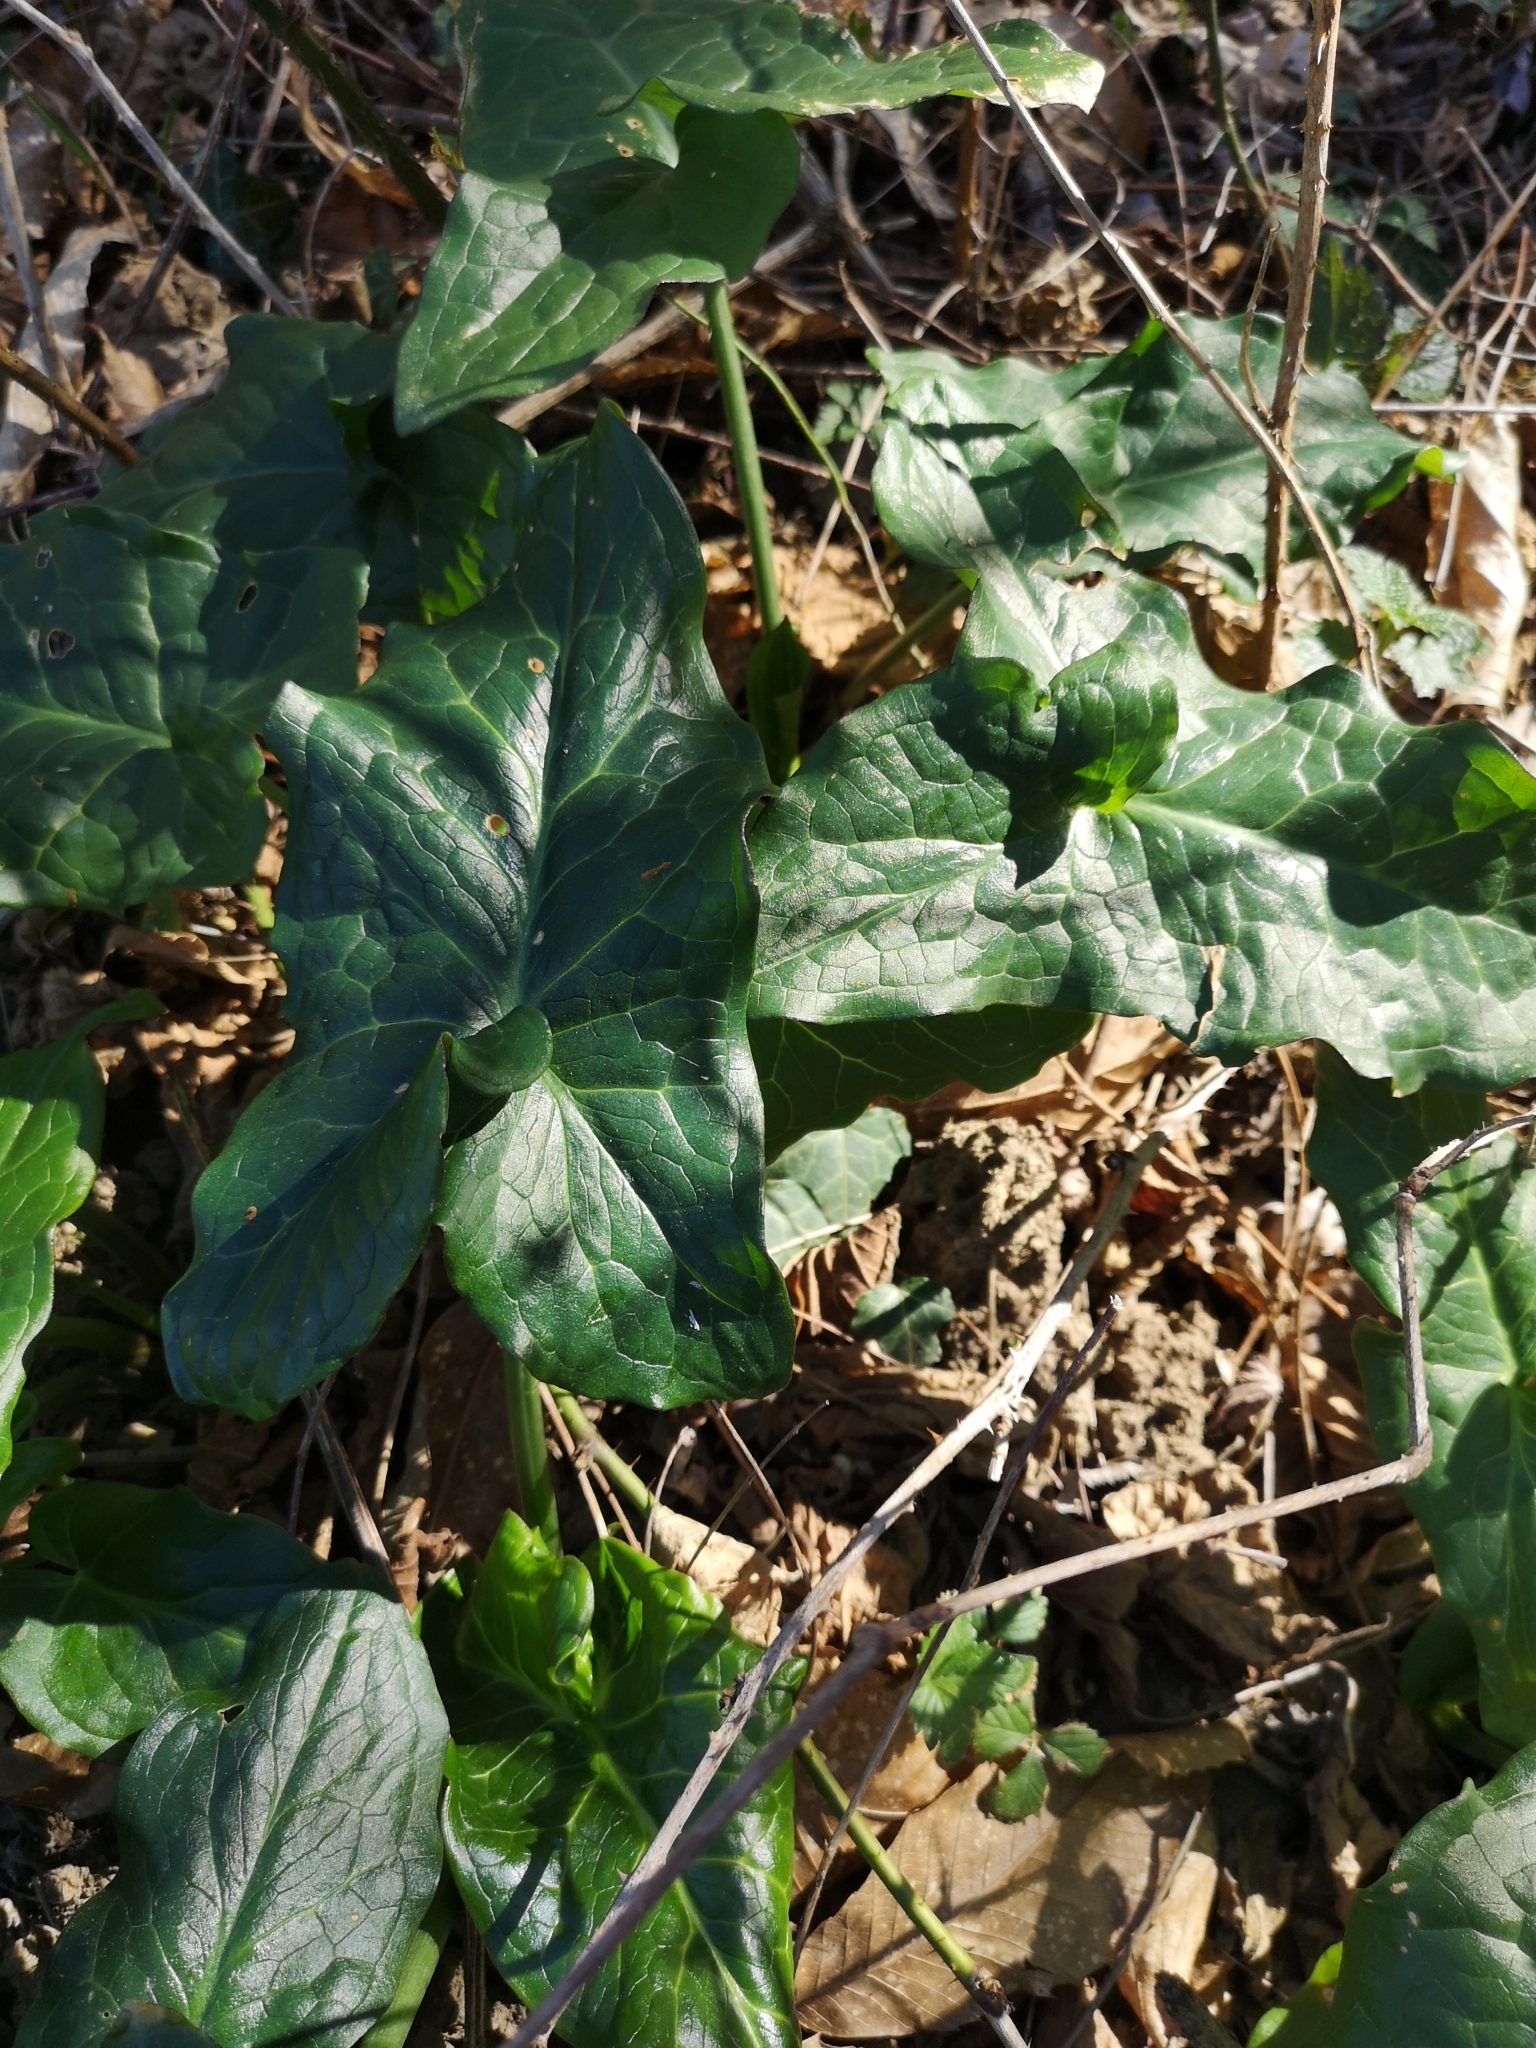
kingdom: Plantae
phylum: Tracheophyta
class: Liliopsida
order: Alismatales
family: Araceae
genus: Arum
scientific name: Arum maculatum
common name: Lords-and-ladies
